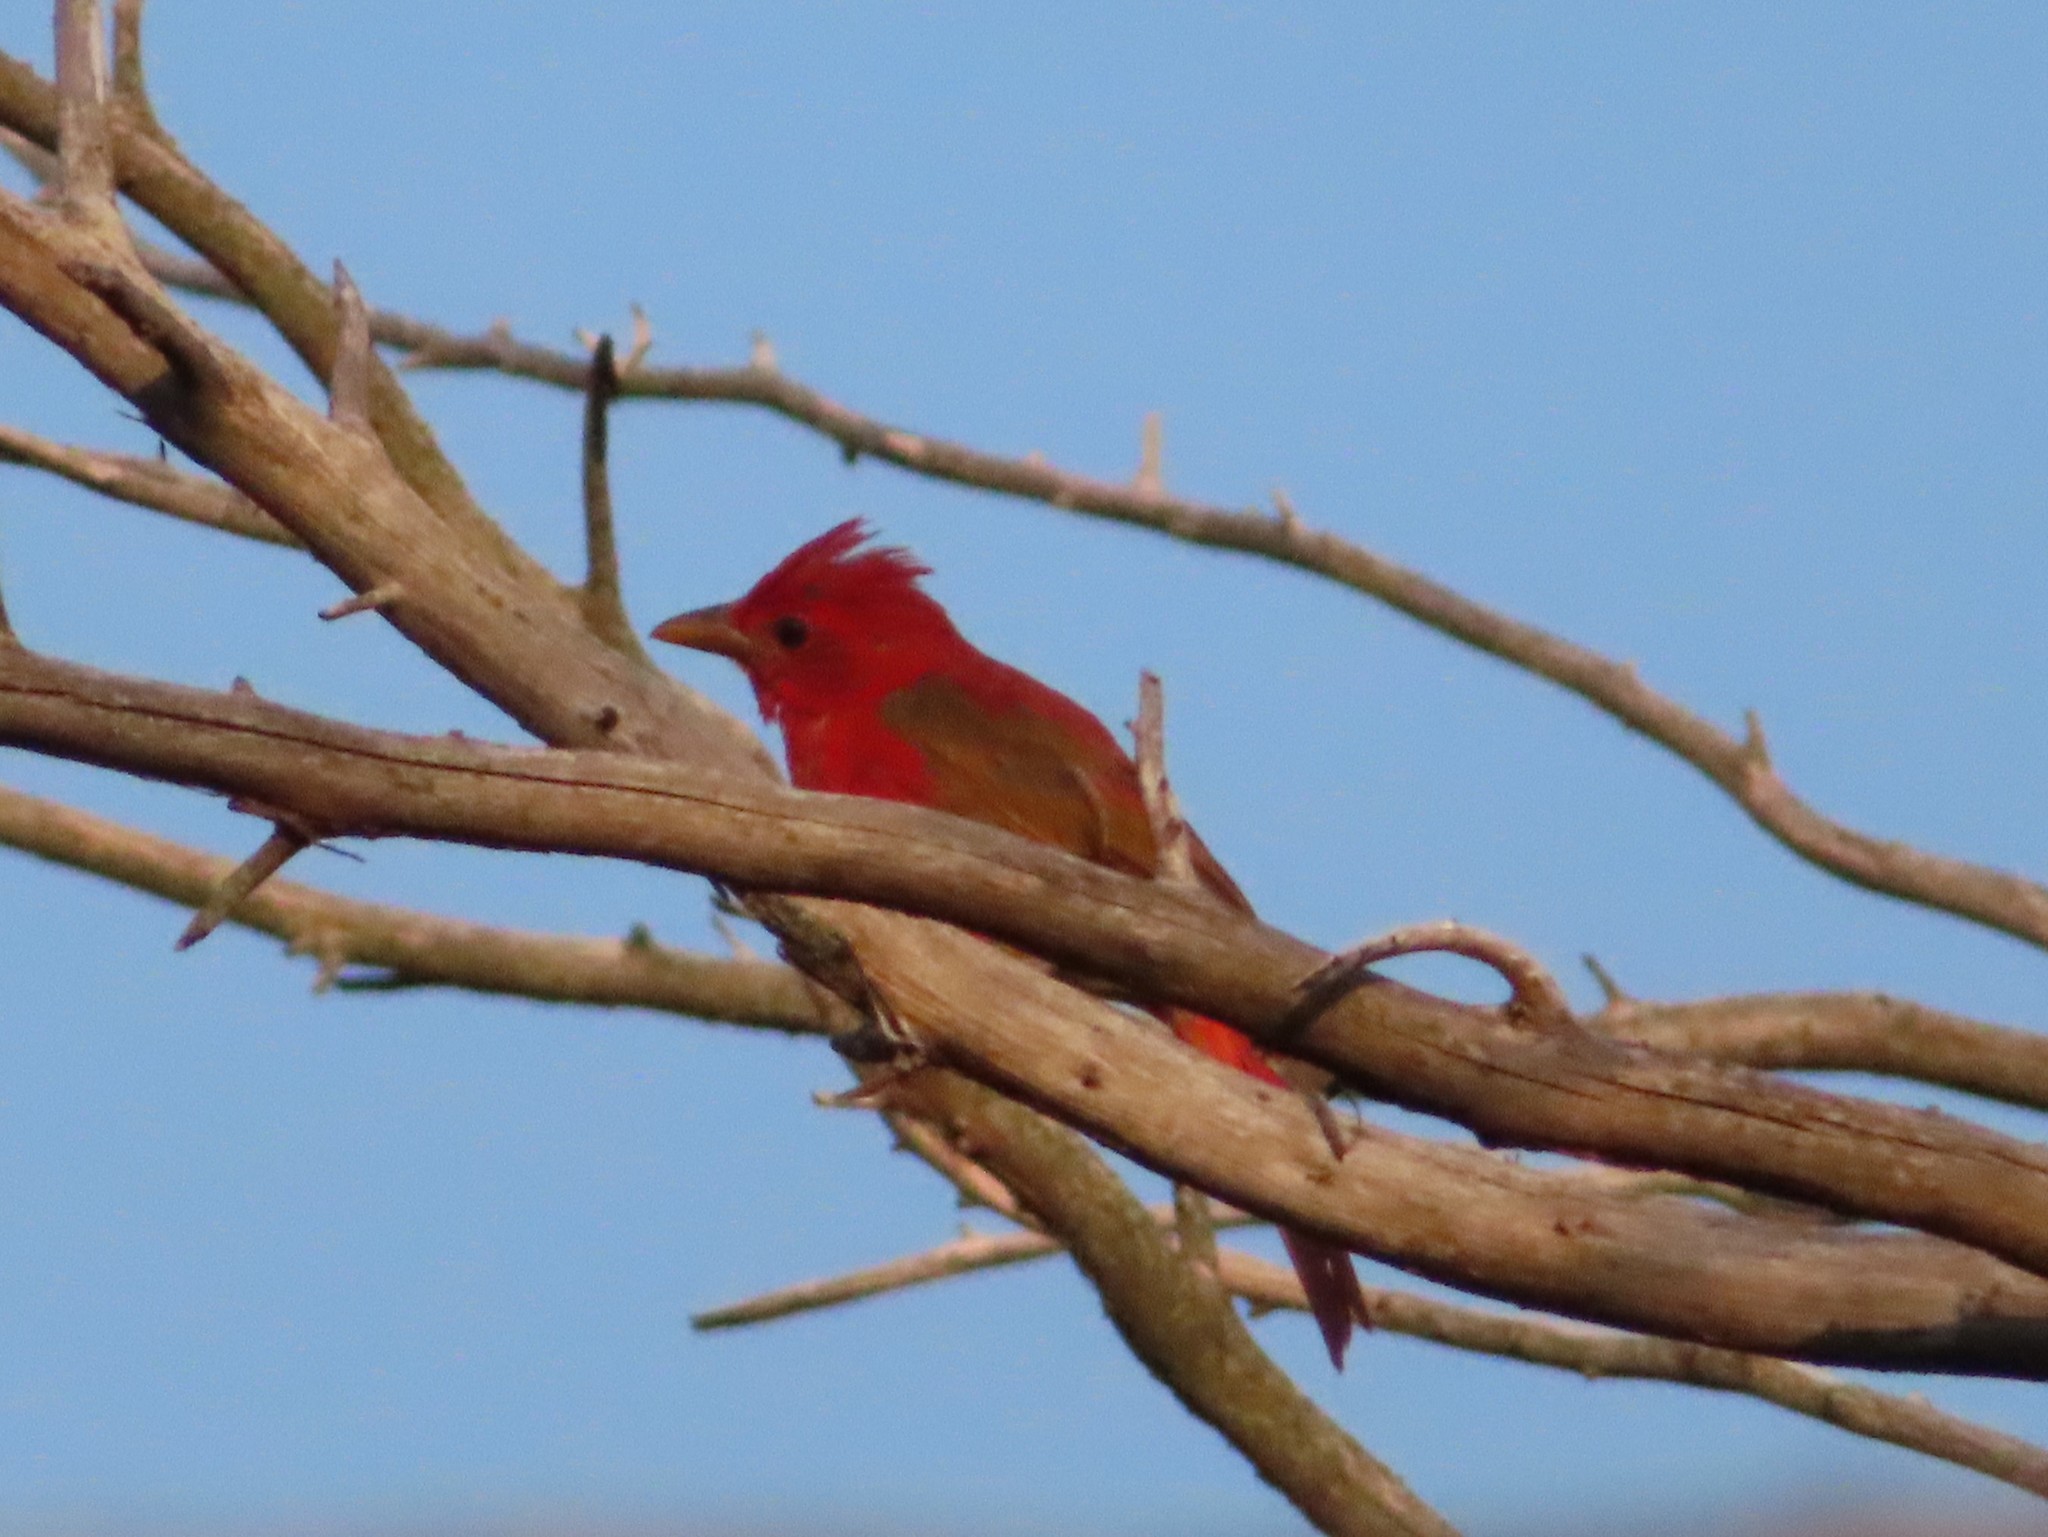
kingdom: Animalia
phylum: Chordata
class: Aves
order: Passeriformes
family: Cardinalidae
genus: Piranga
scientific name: Piranga rubra
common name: Summer tanager
